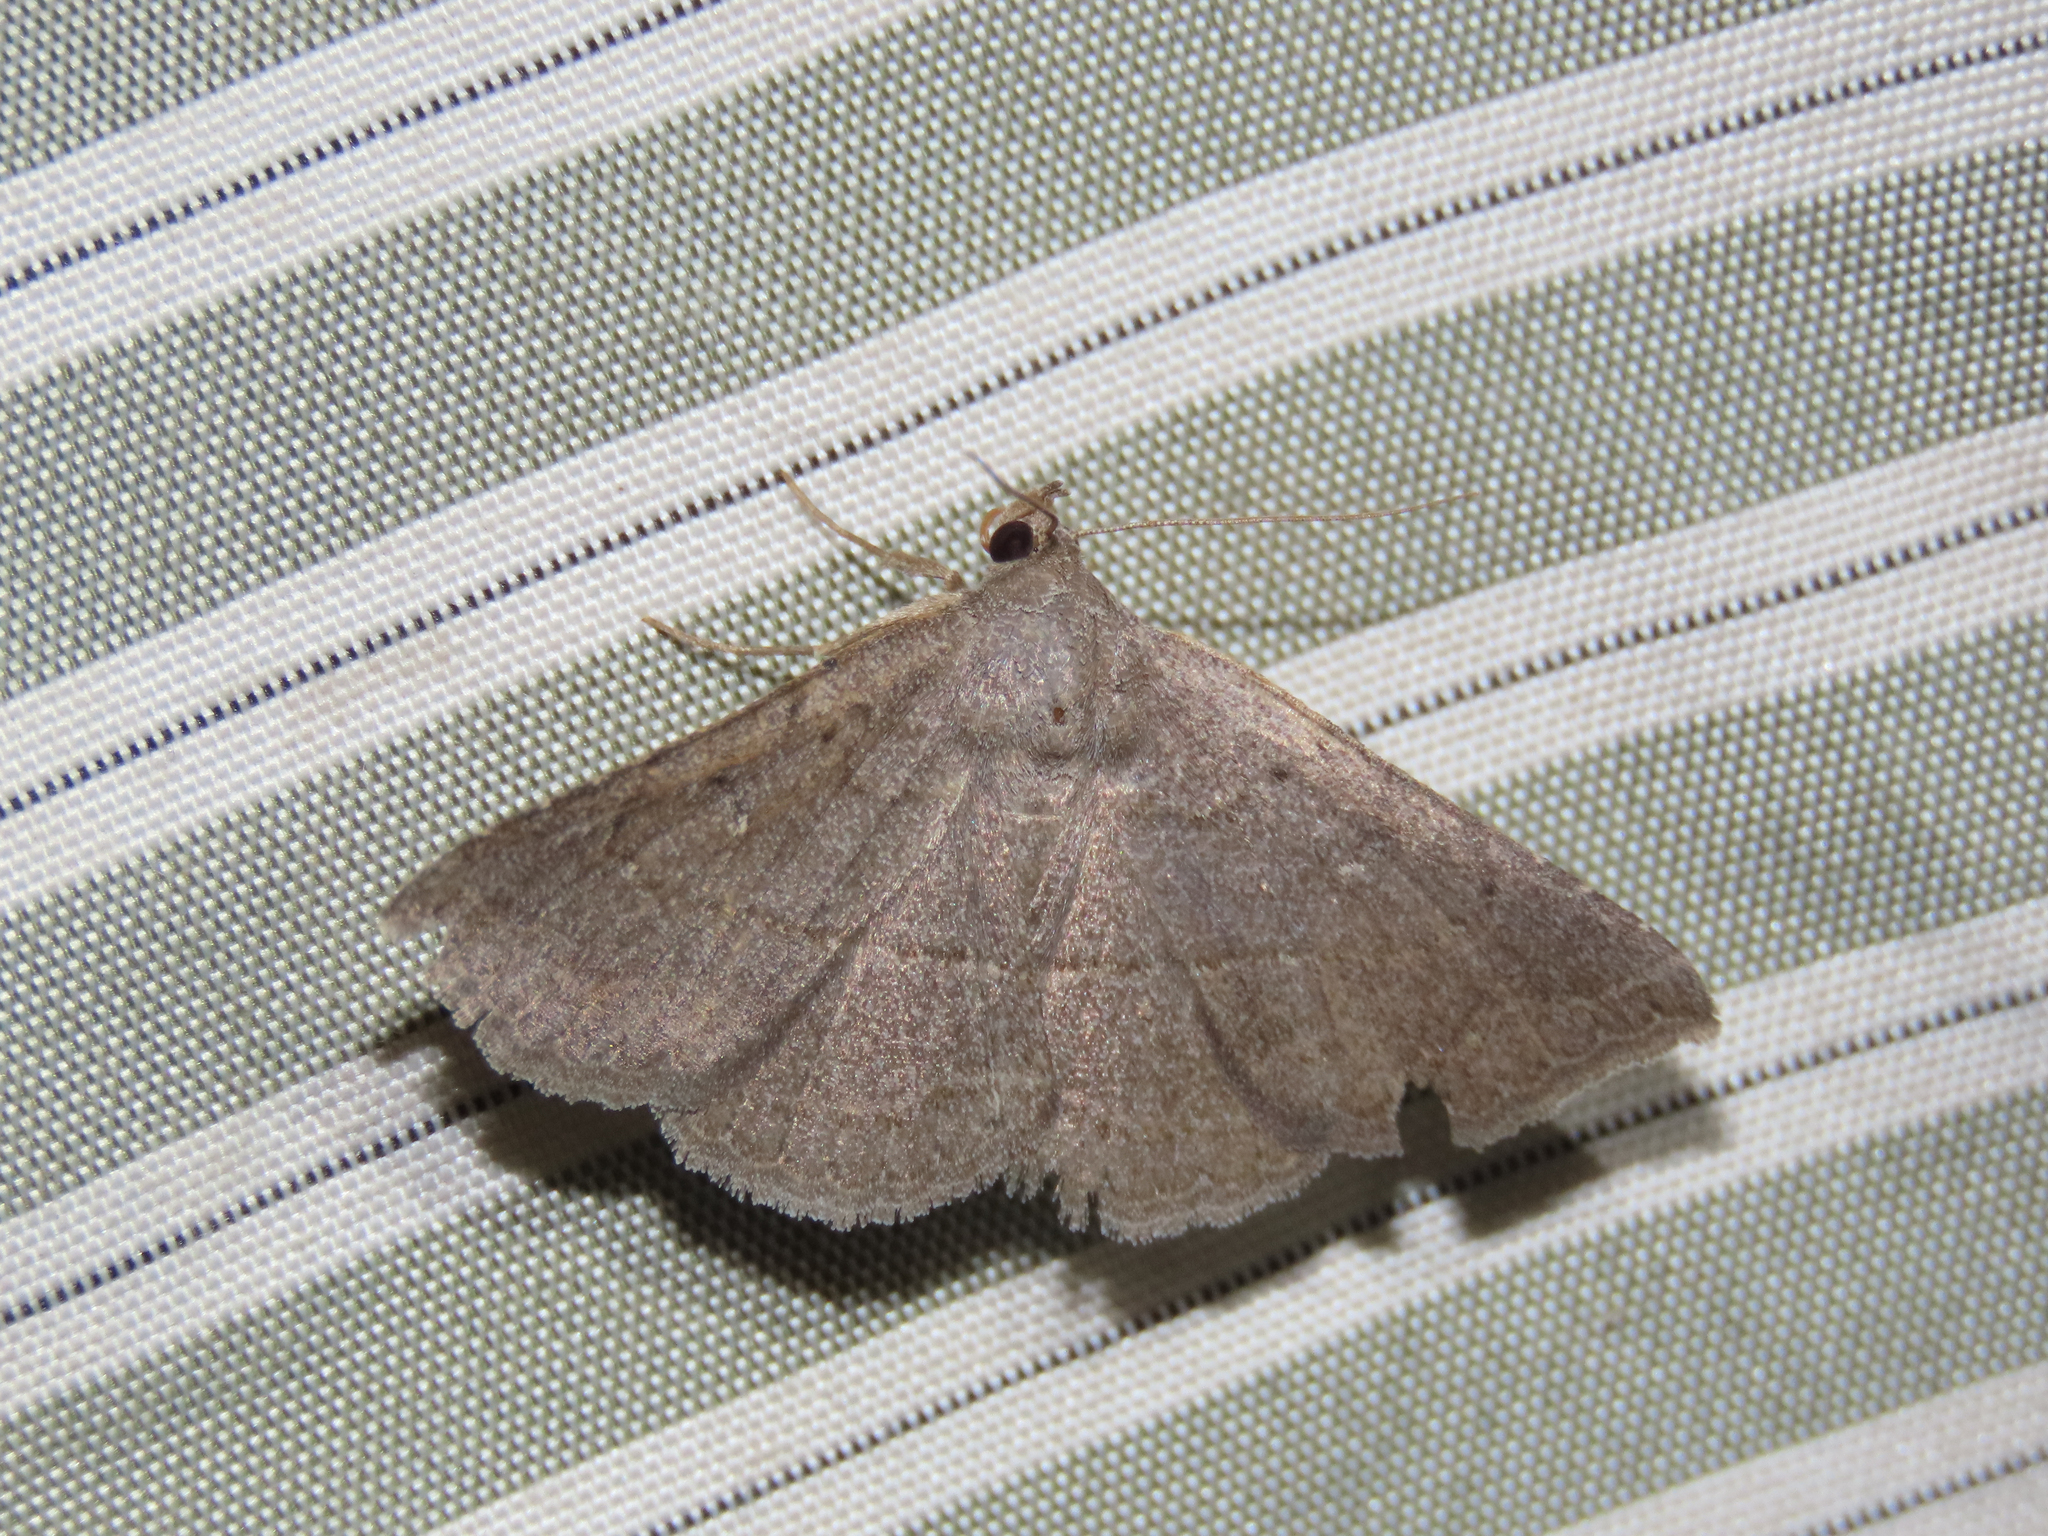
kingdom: Animalia
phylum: Arthropoda
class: Insecta
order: Lepidoptera
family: Erebidae
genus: Lesmone
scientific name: Lesmone griseipennis
